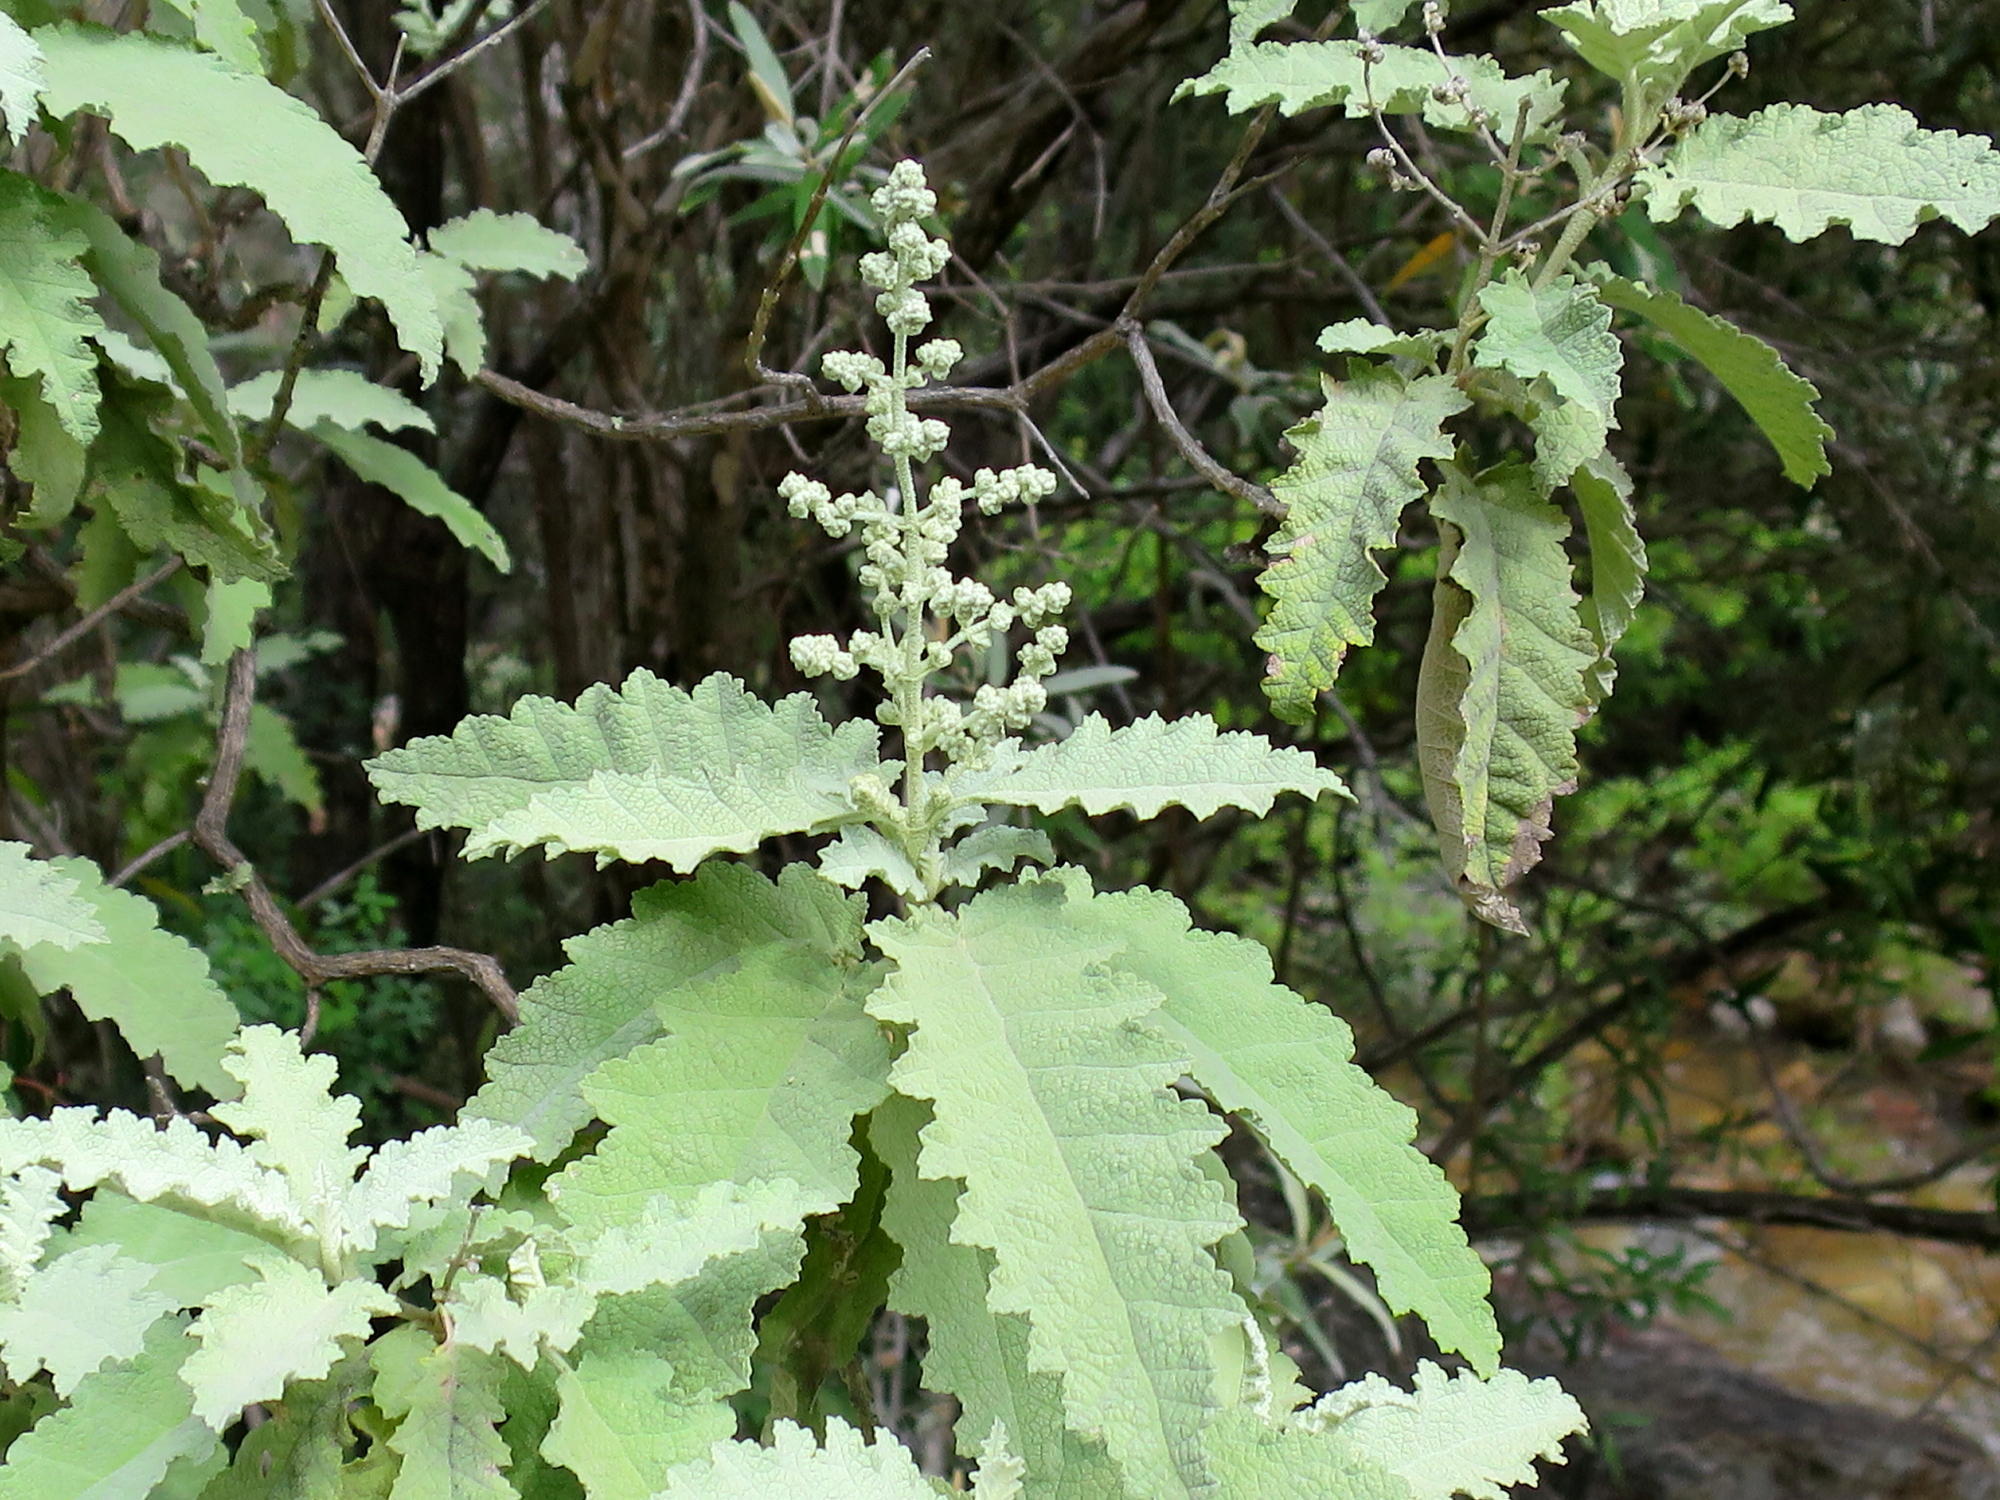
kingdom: Plantae
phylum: Tracheophyta
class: Magnoliopsida
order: Lamiales
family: Scrophulariaceae
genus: Buddleja
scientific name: Buddleja glomerata
